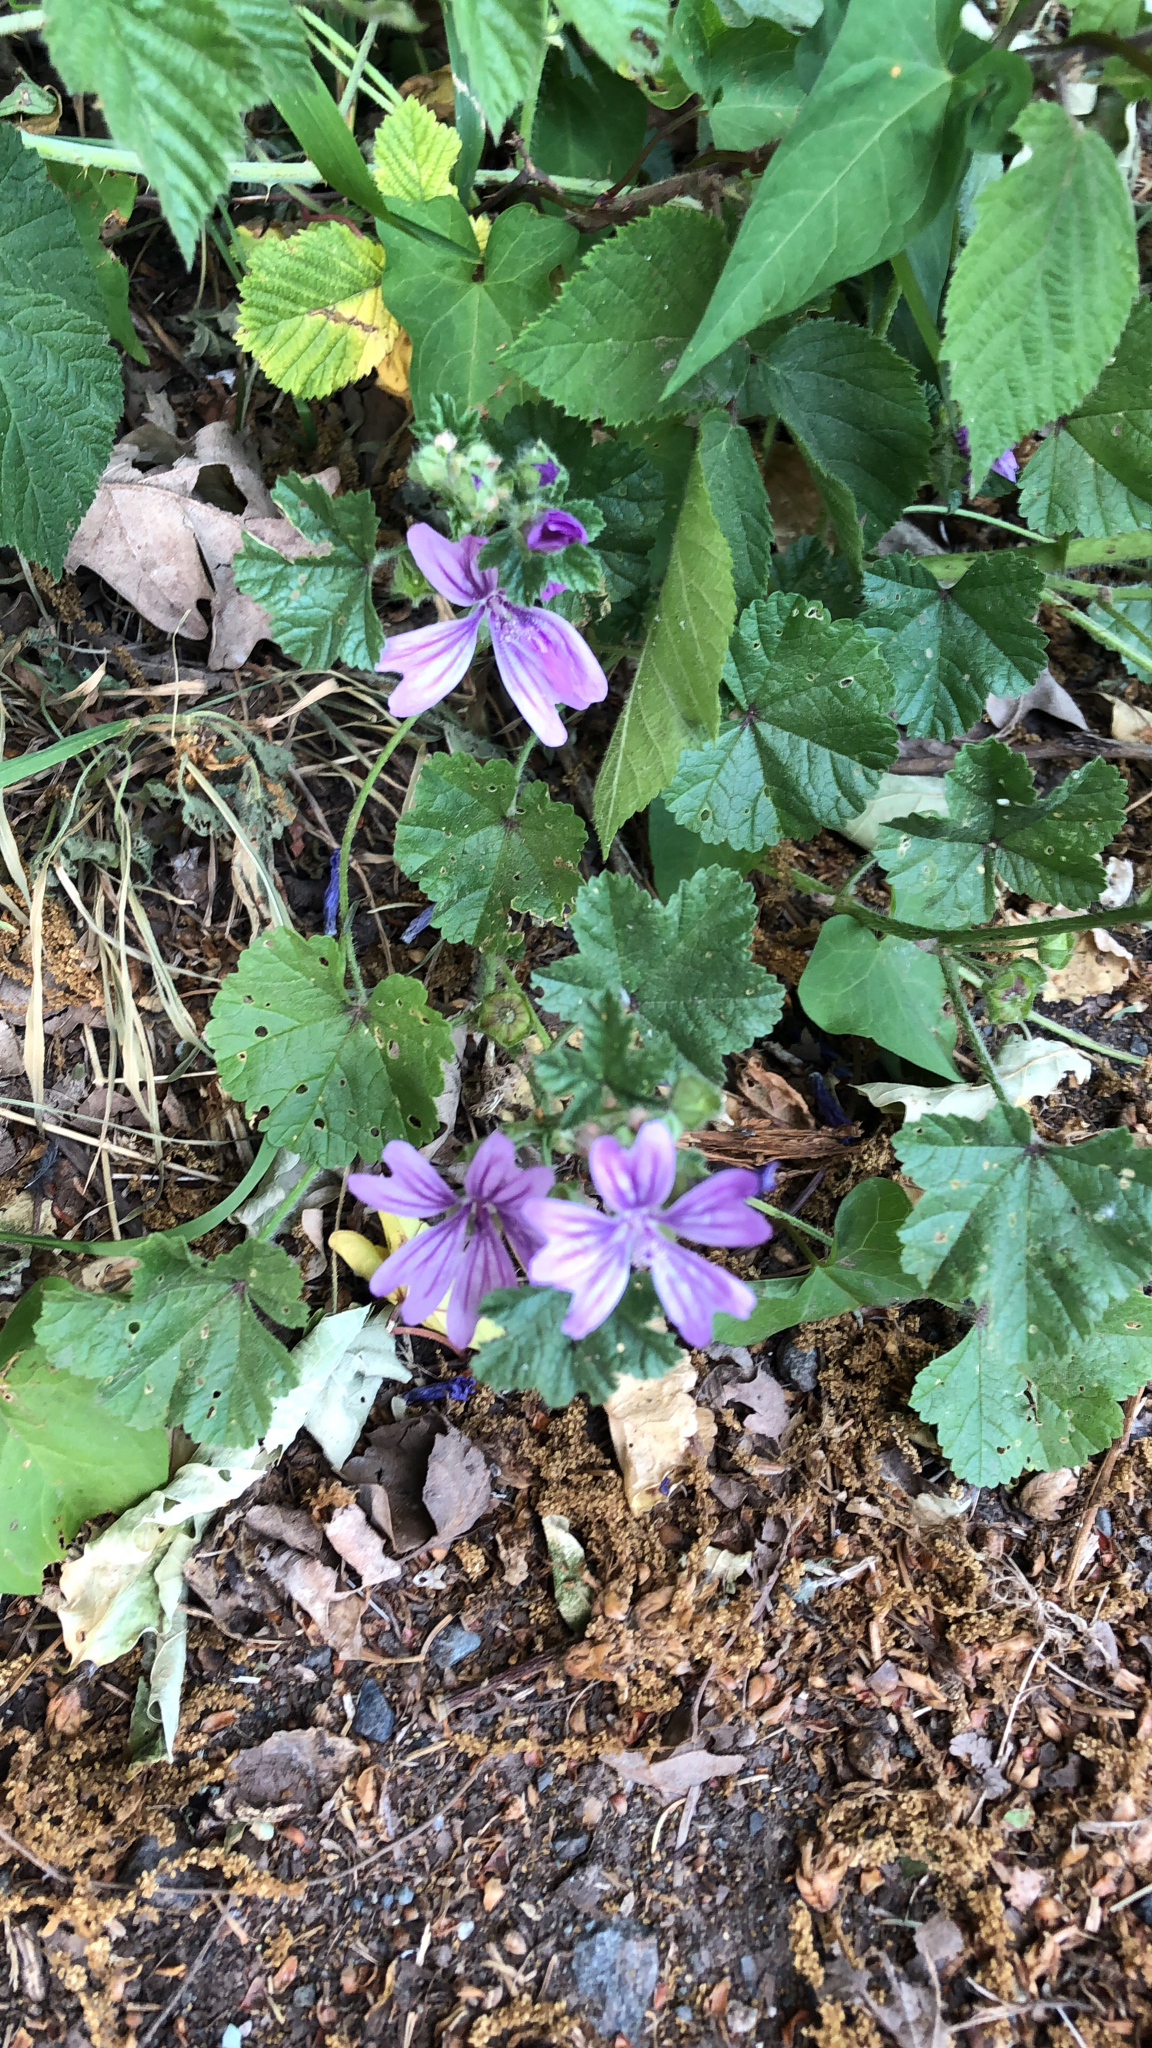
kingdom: Plantae
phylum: Tracheophyta
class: Magnoliopsida
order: Malvales
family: Malvaceae
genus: Malva
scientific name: Malva sylvestris
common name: Common mallow
